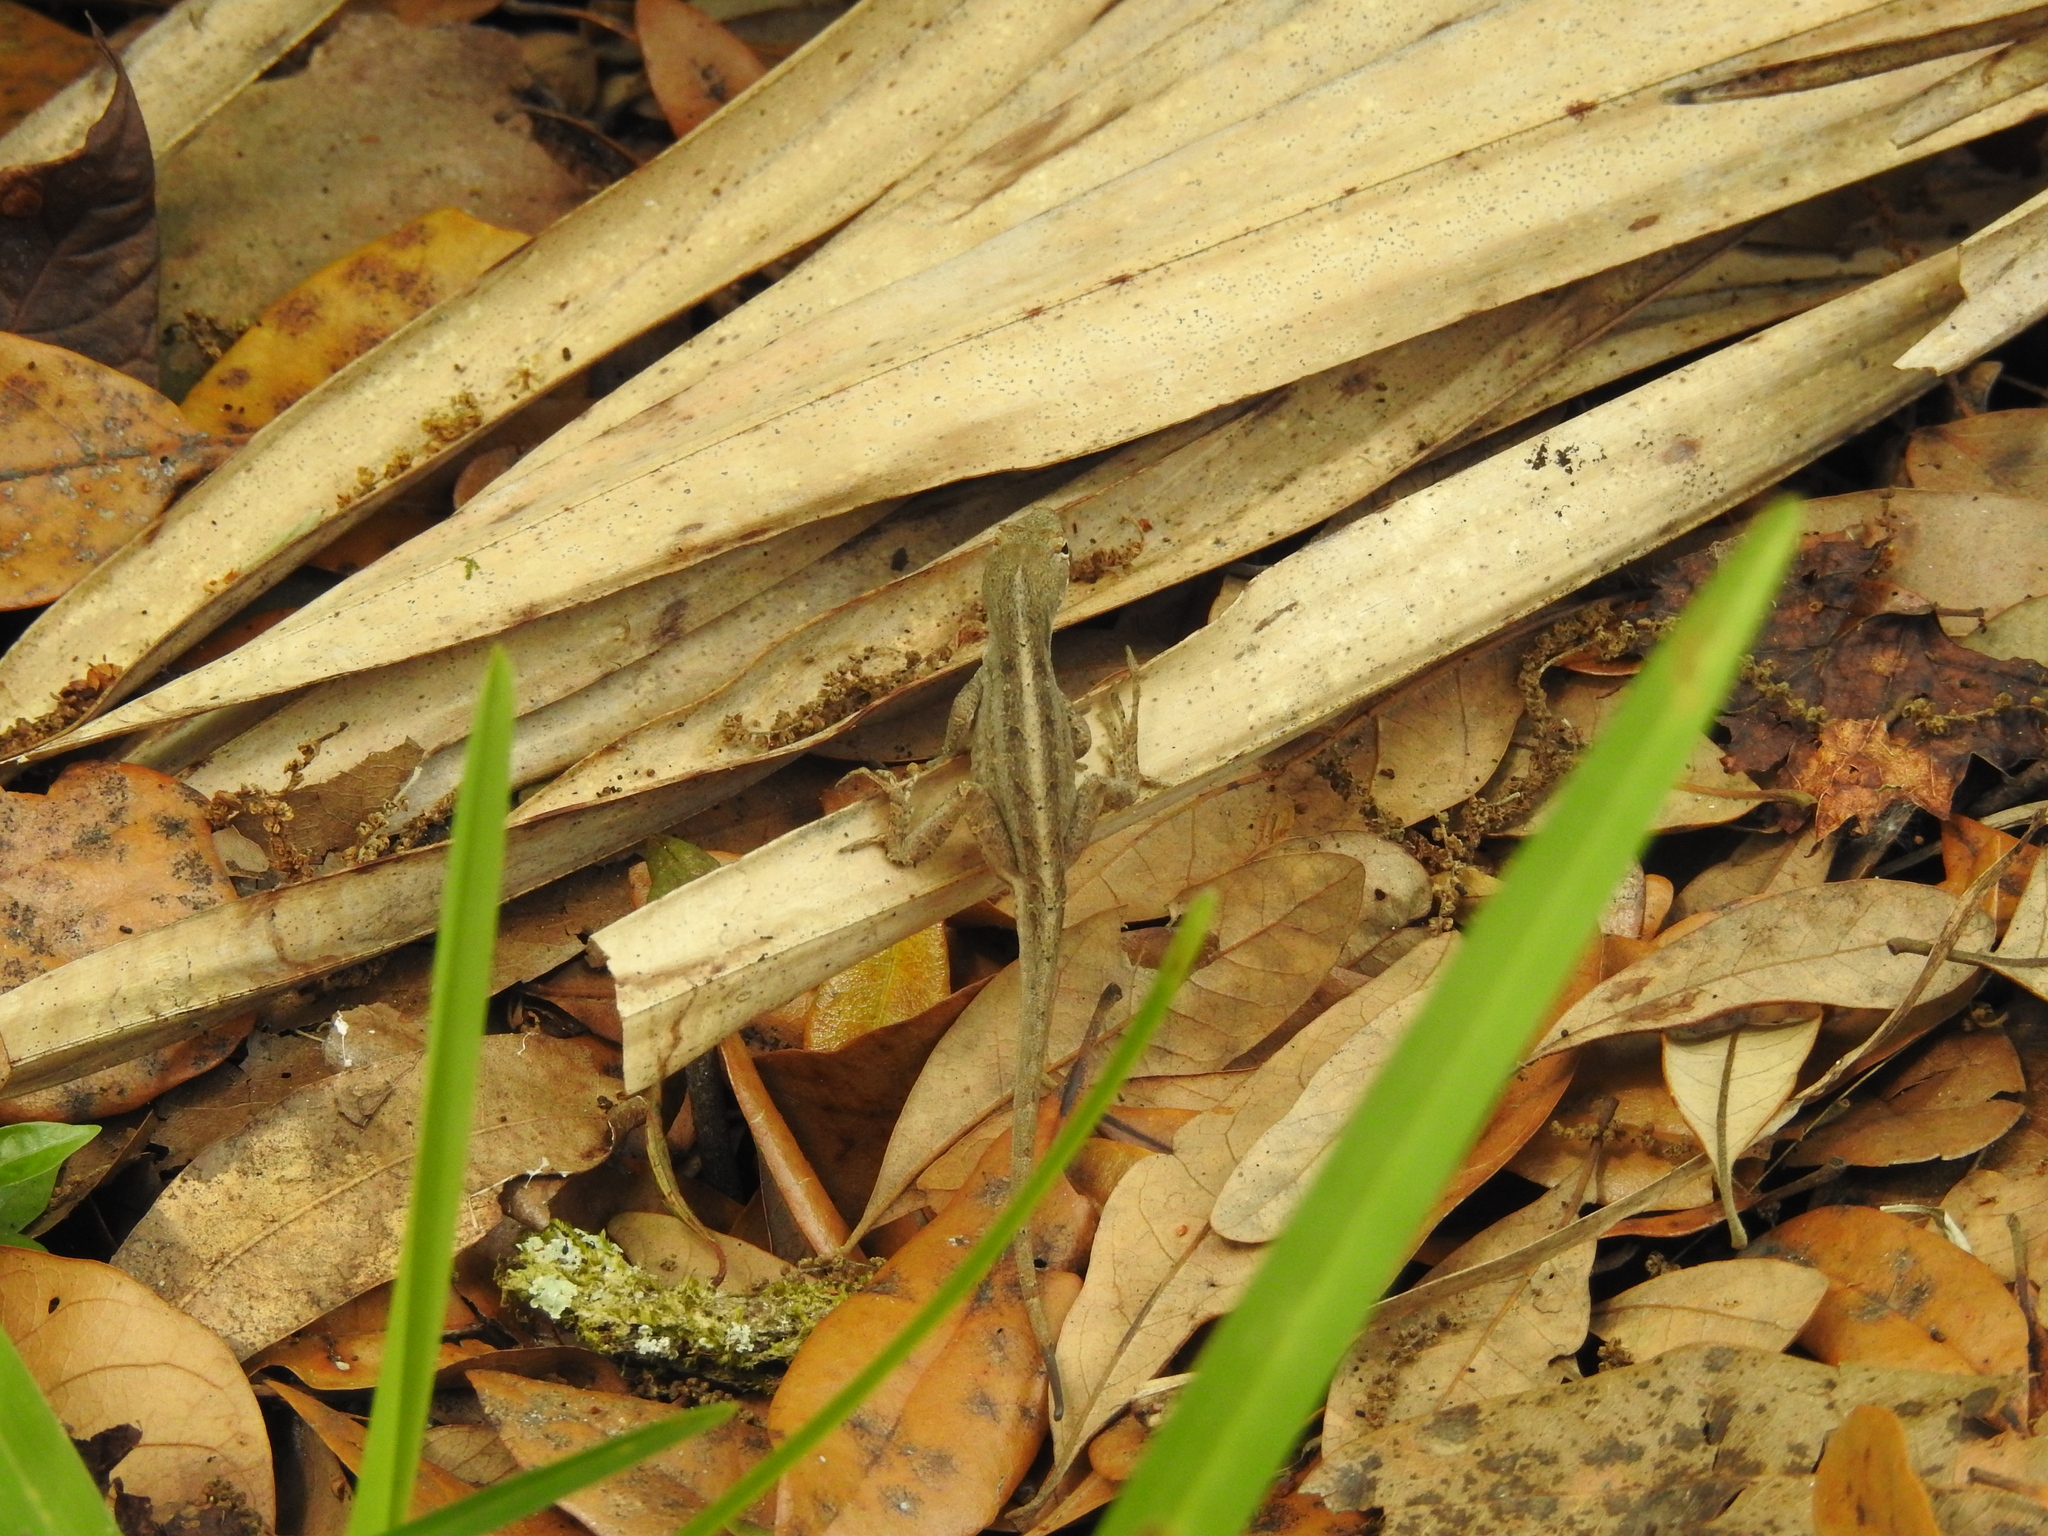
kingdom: Animalia
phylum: Chordata
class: Squamata
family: Dactyloidae
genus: Anolis
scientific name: Anolis sagrei
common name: Brown anole
